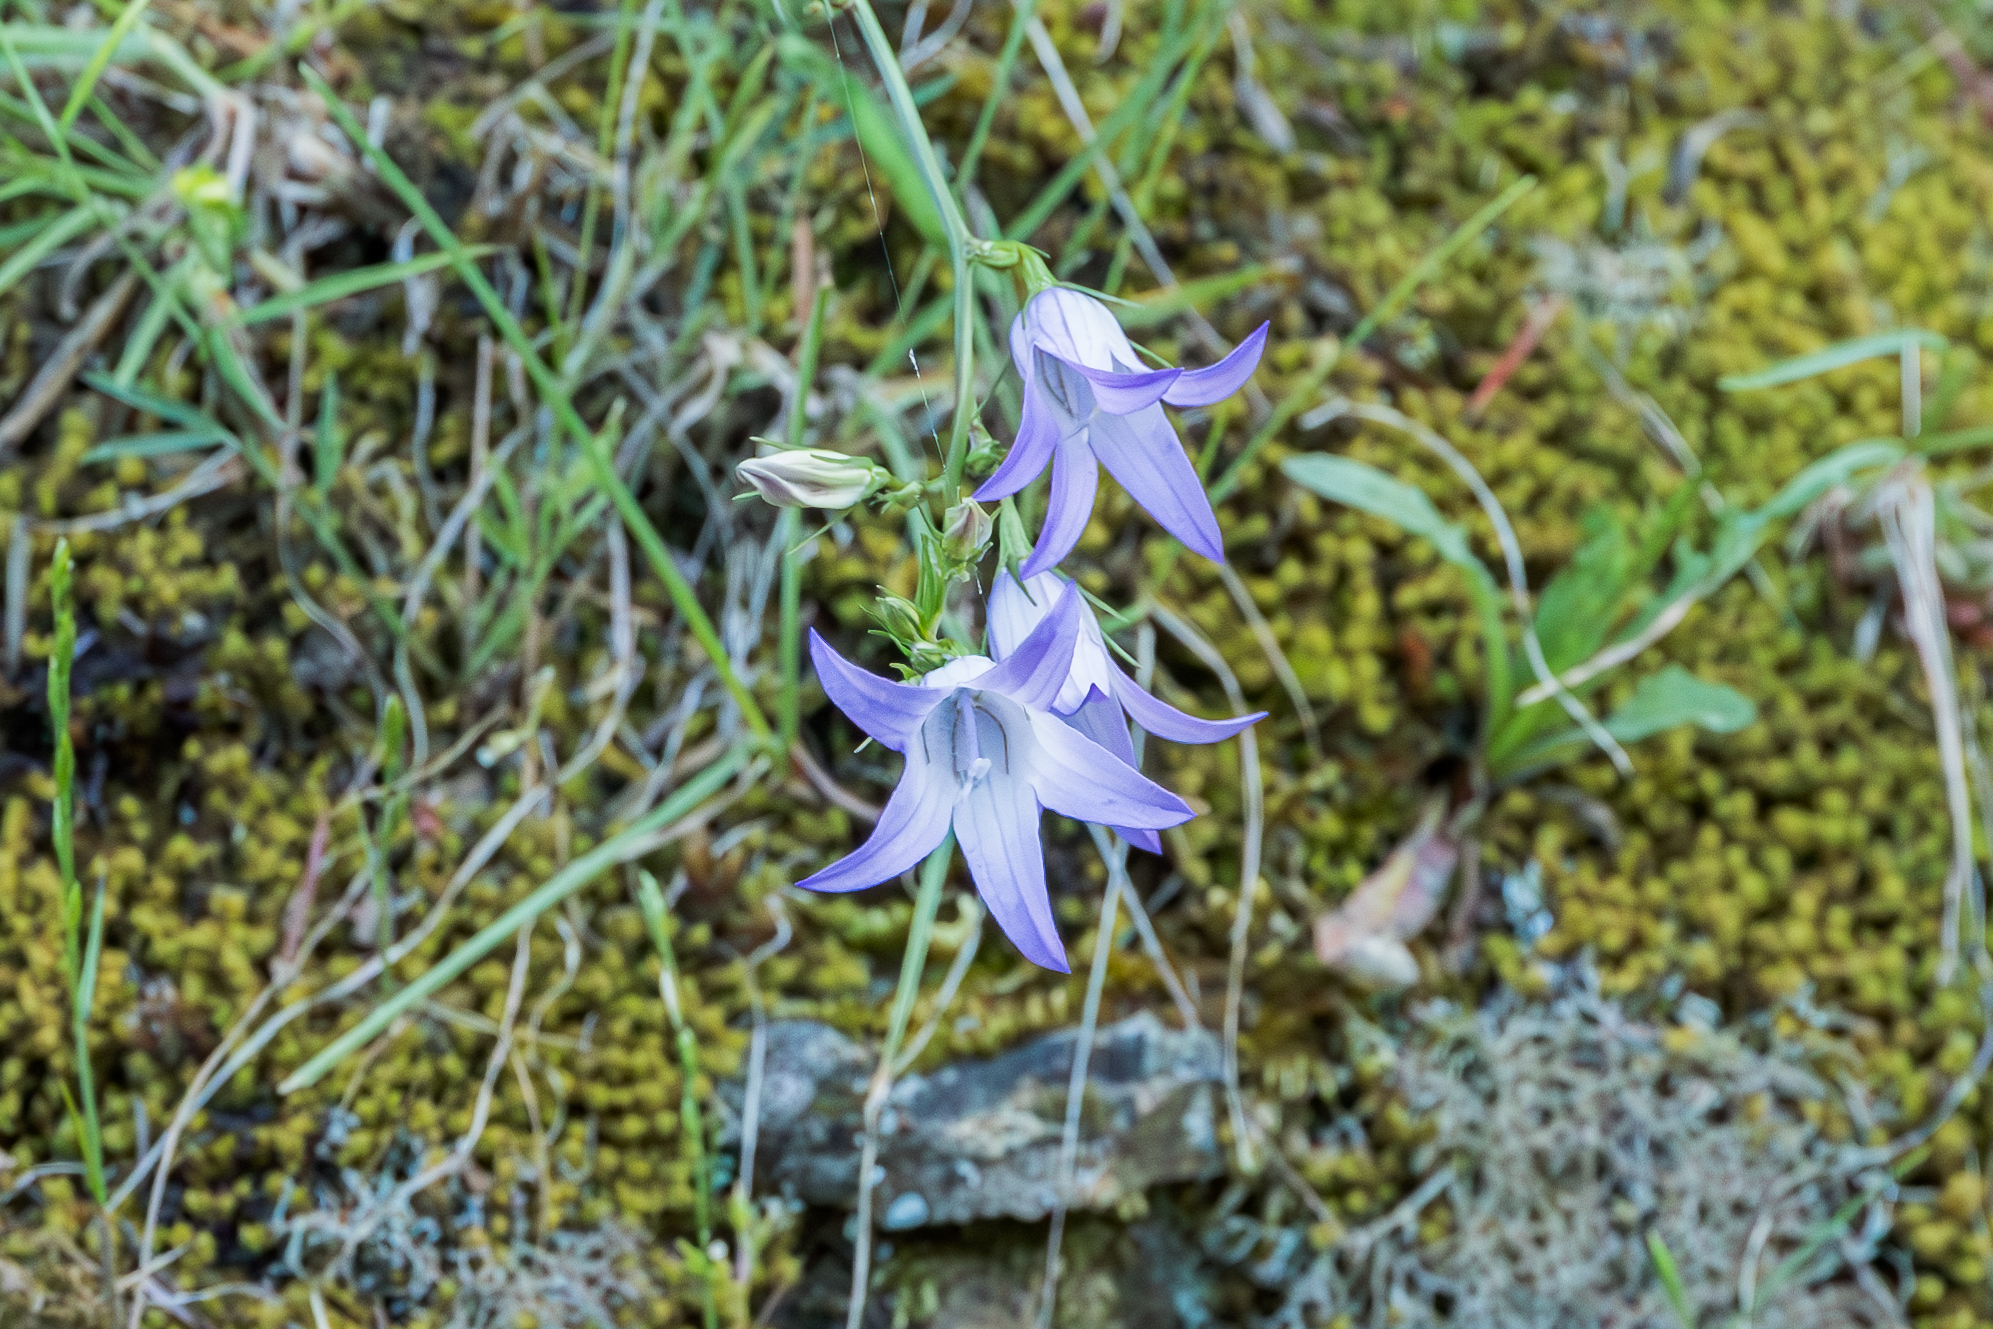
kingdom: Plantae
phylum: Tracheophyta
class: Magnoliopsida
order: Asterales
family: Campanulaceae
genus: Campanula
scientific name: Campanula rapunculus
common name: Rampion bellflower
